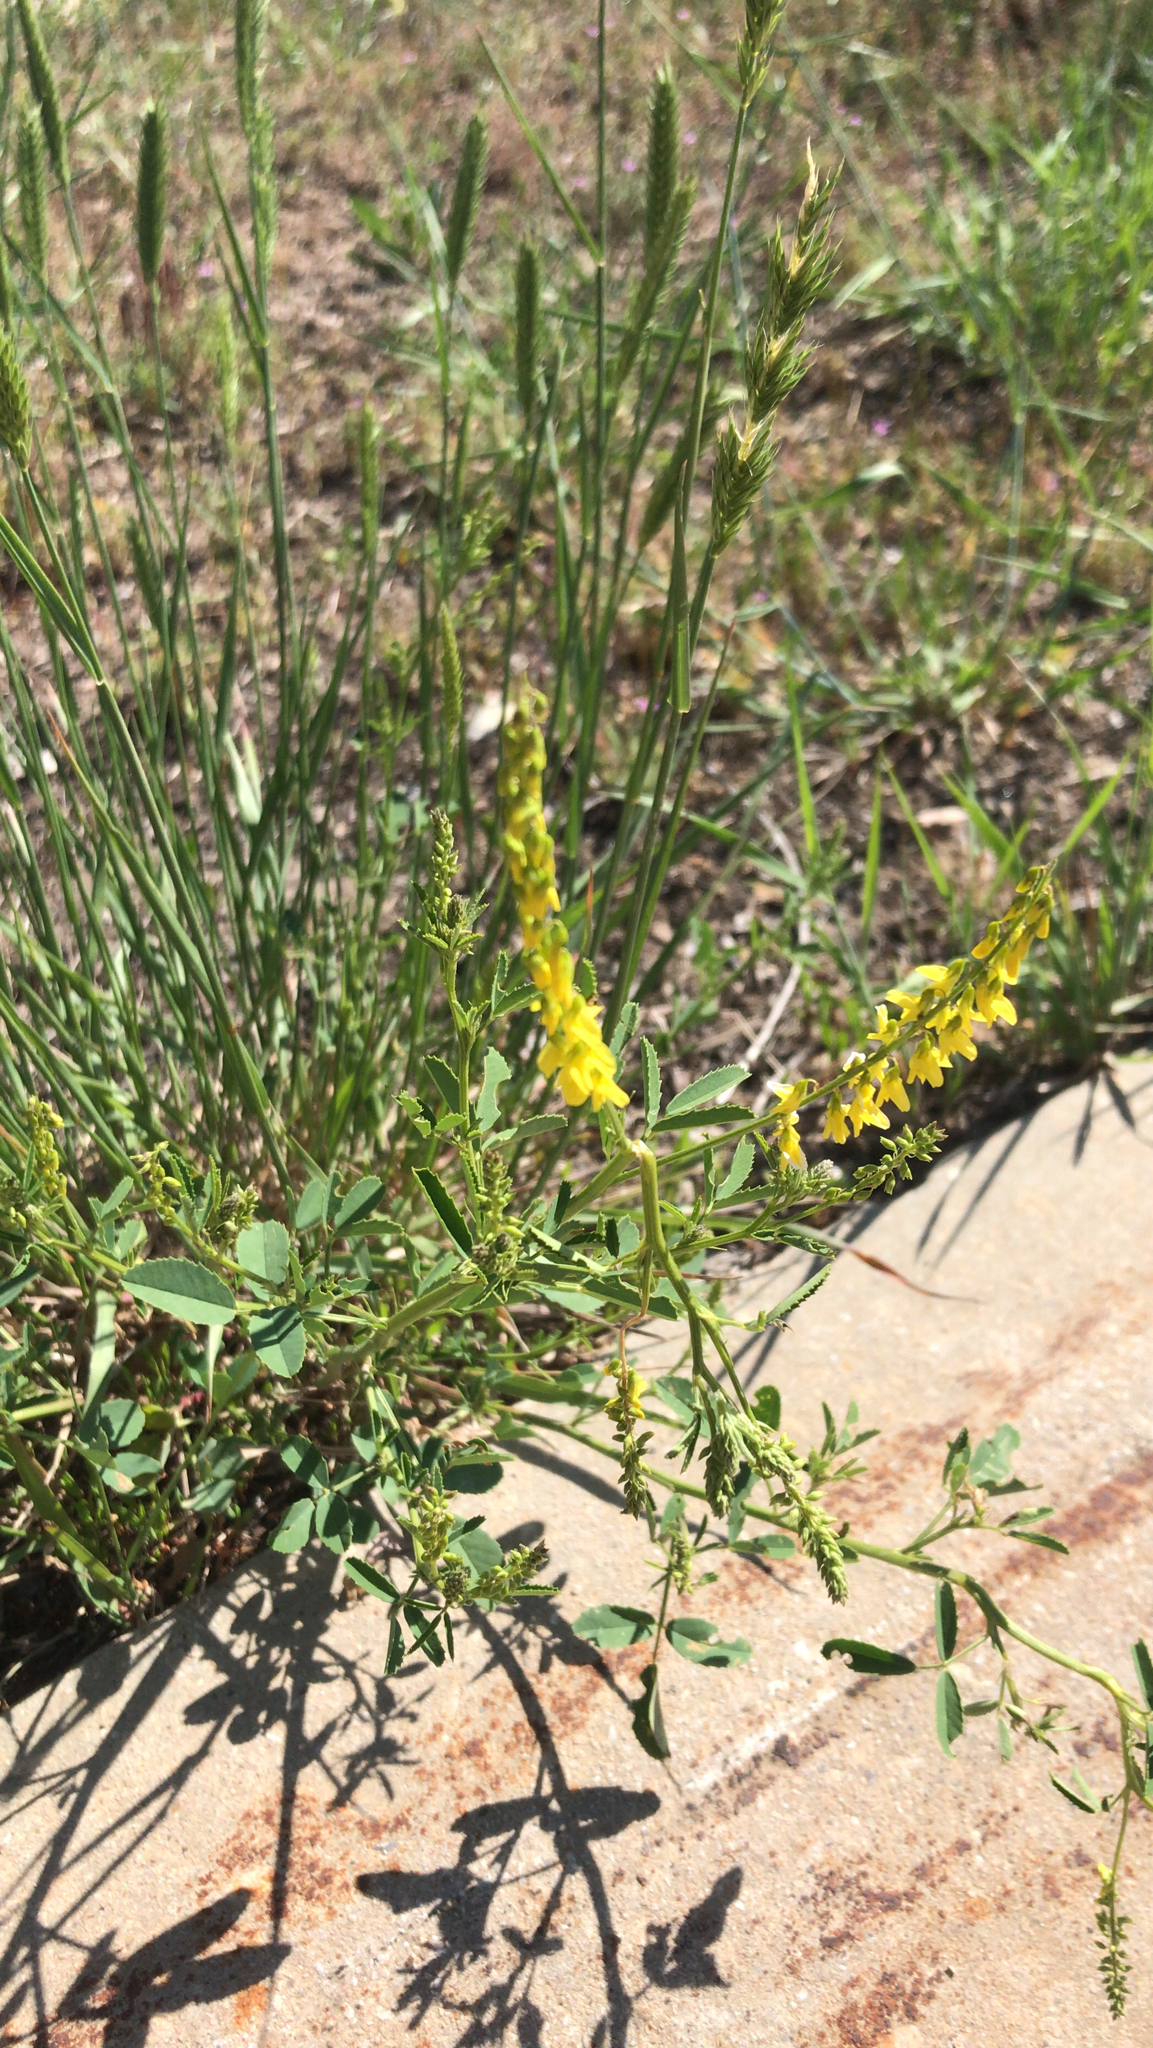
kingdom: Plantae
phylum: Tracheophyta
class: Magnoliopsida
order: Fabales
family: Fabaceae
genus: Melilotus
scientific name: Melilotus officinalis
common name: Sweetclover
